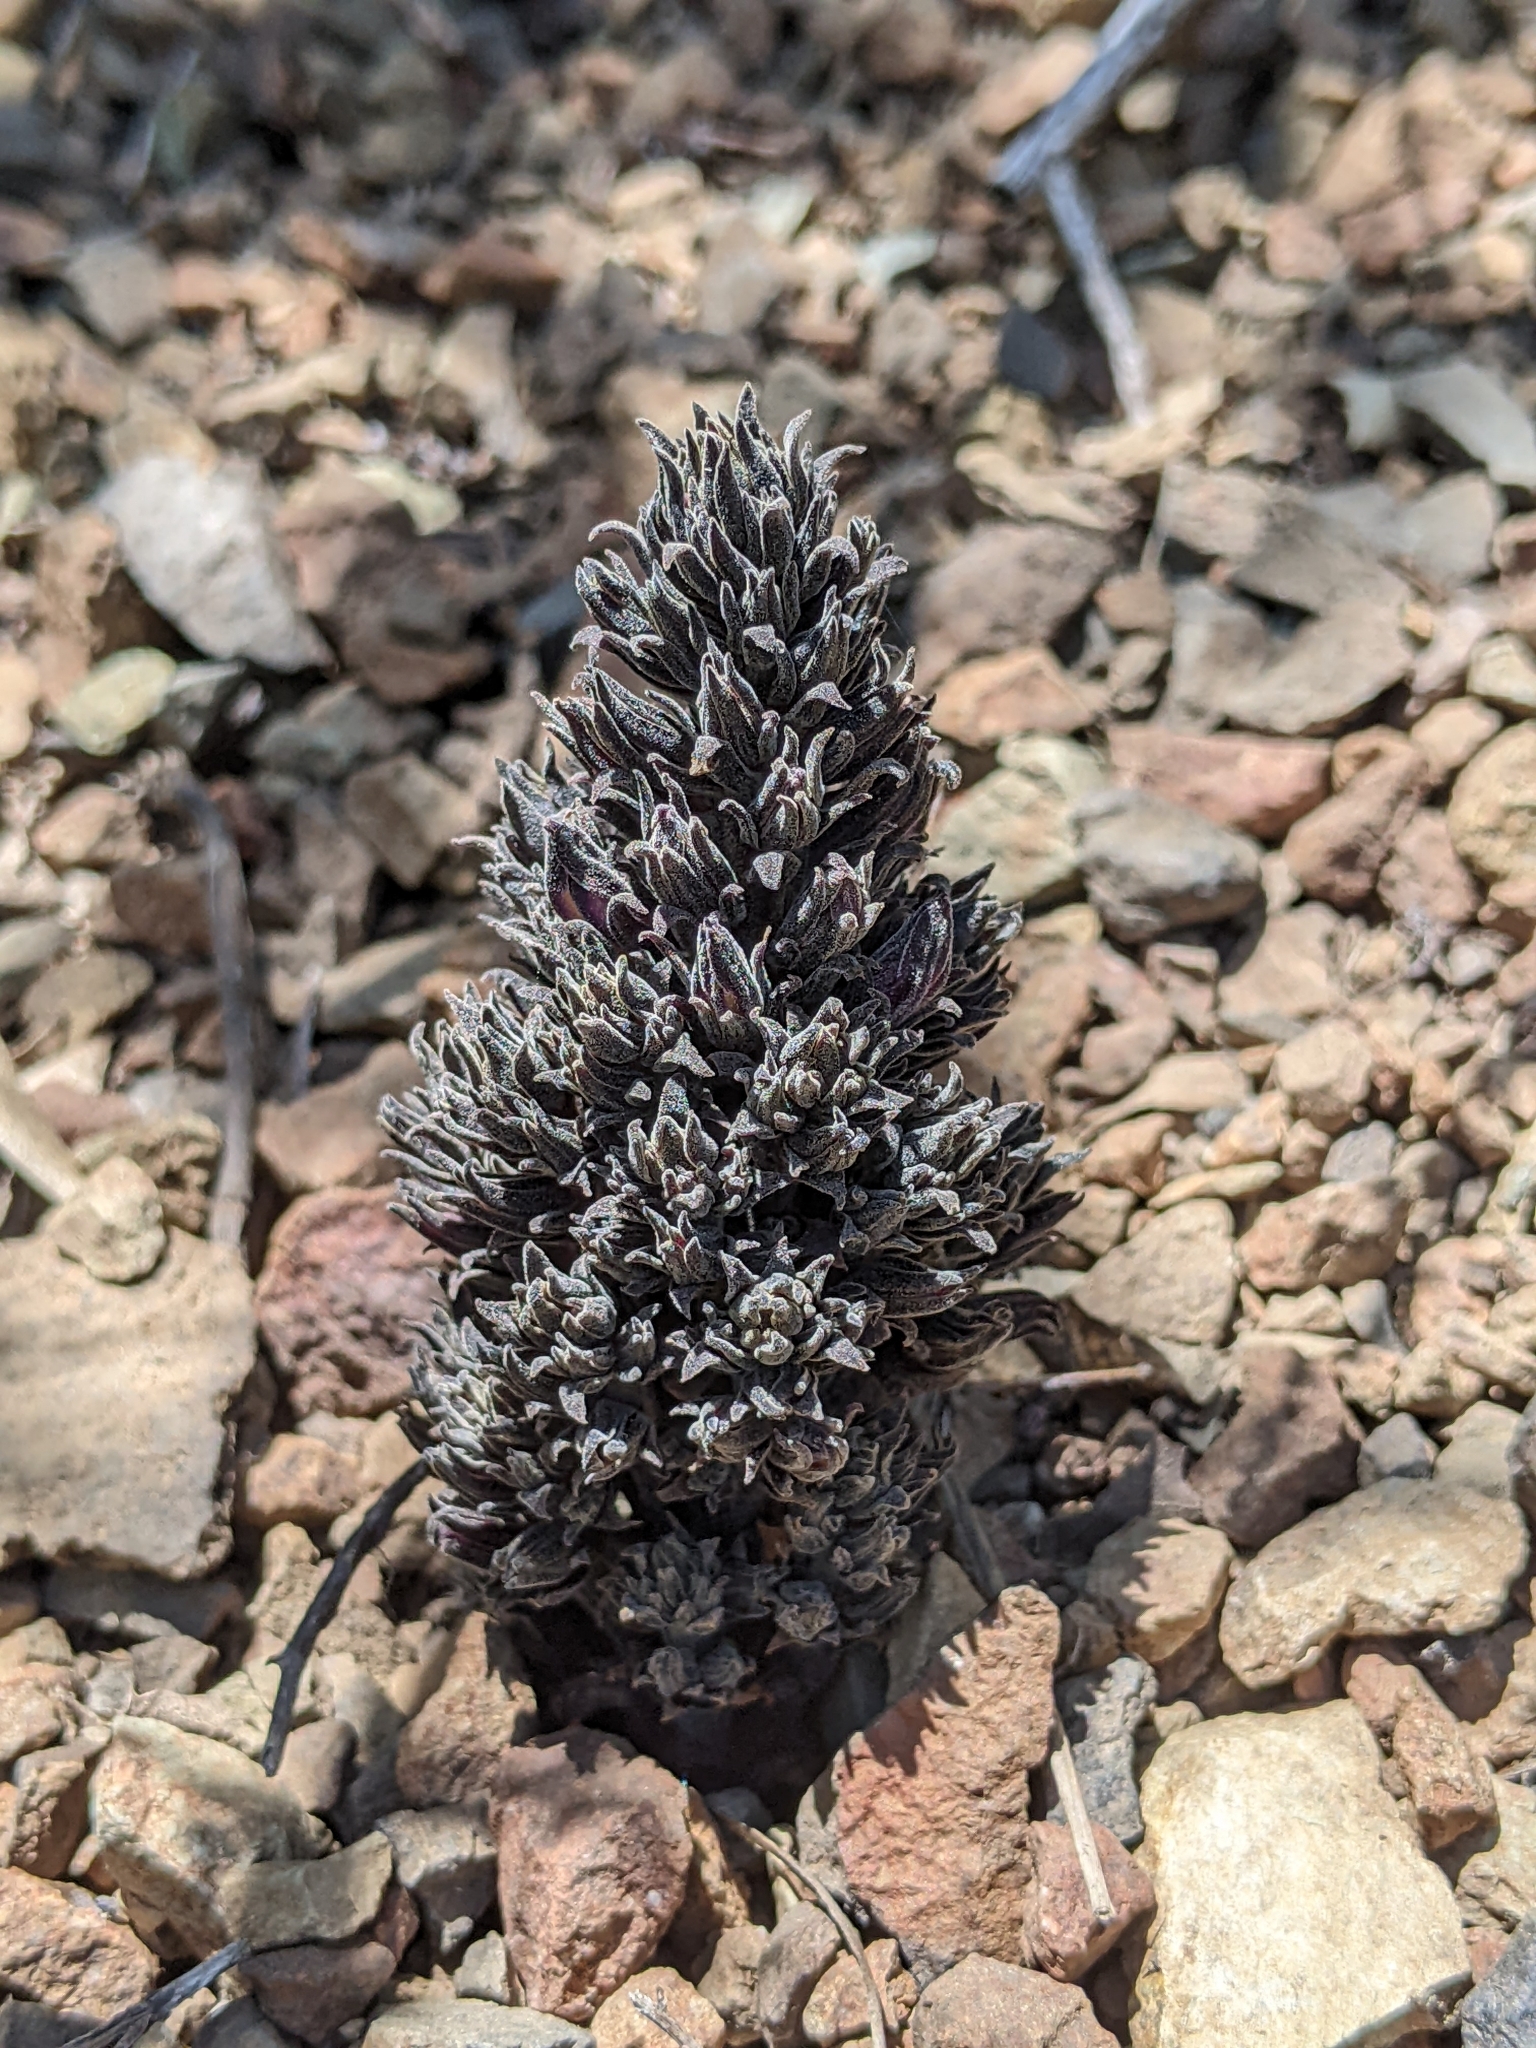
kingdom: Plantae
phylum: Tracheophyta
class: Magnoliopsida
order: Lamiales
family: Orobanchaceae
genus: Aphyllon
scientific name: Aphyllon tuberosum
